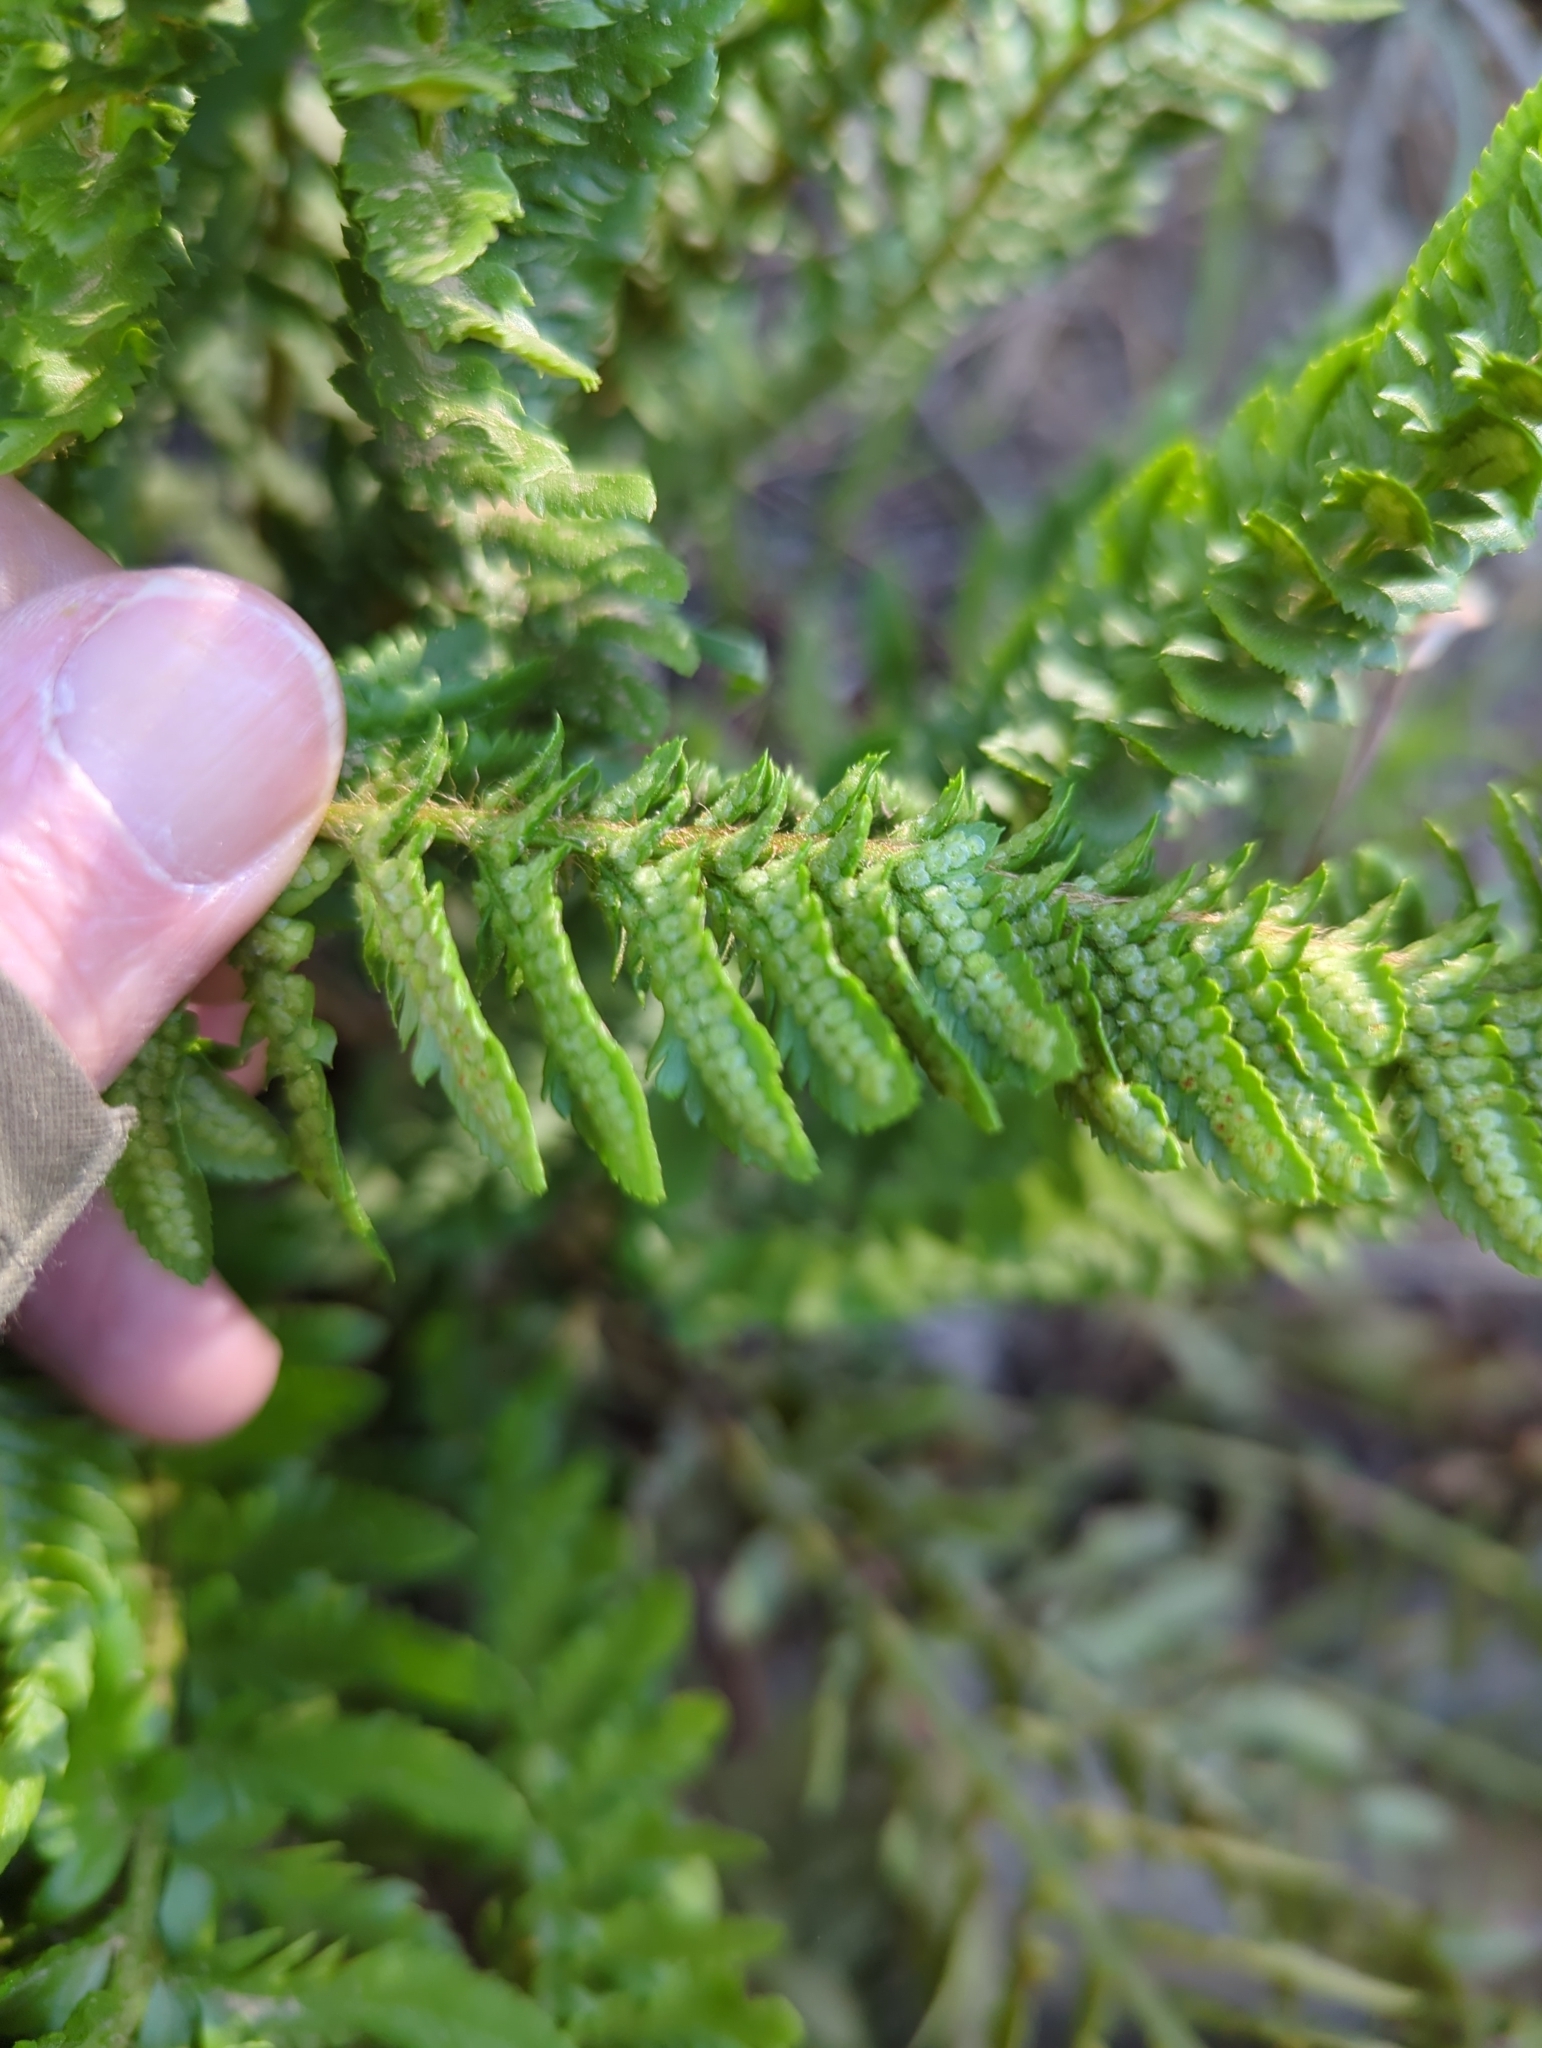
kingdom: Plantae
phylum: Tracheophyta
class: Polypodiopsida
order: Polypodiales
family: Dryopteridaceae
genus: Polystichum
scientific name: Polystichum scopulinum
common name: Eaton's shield fern
